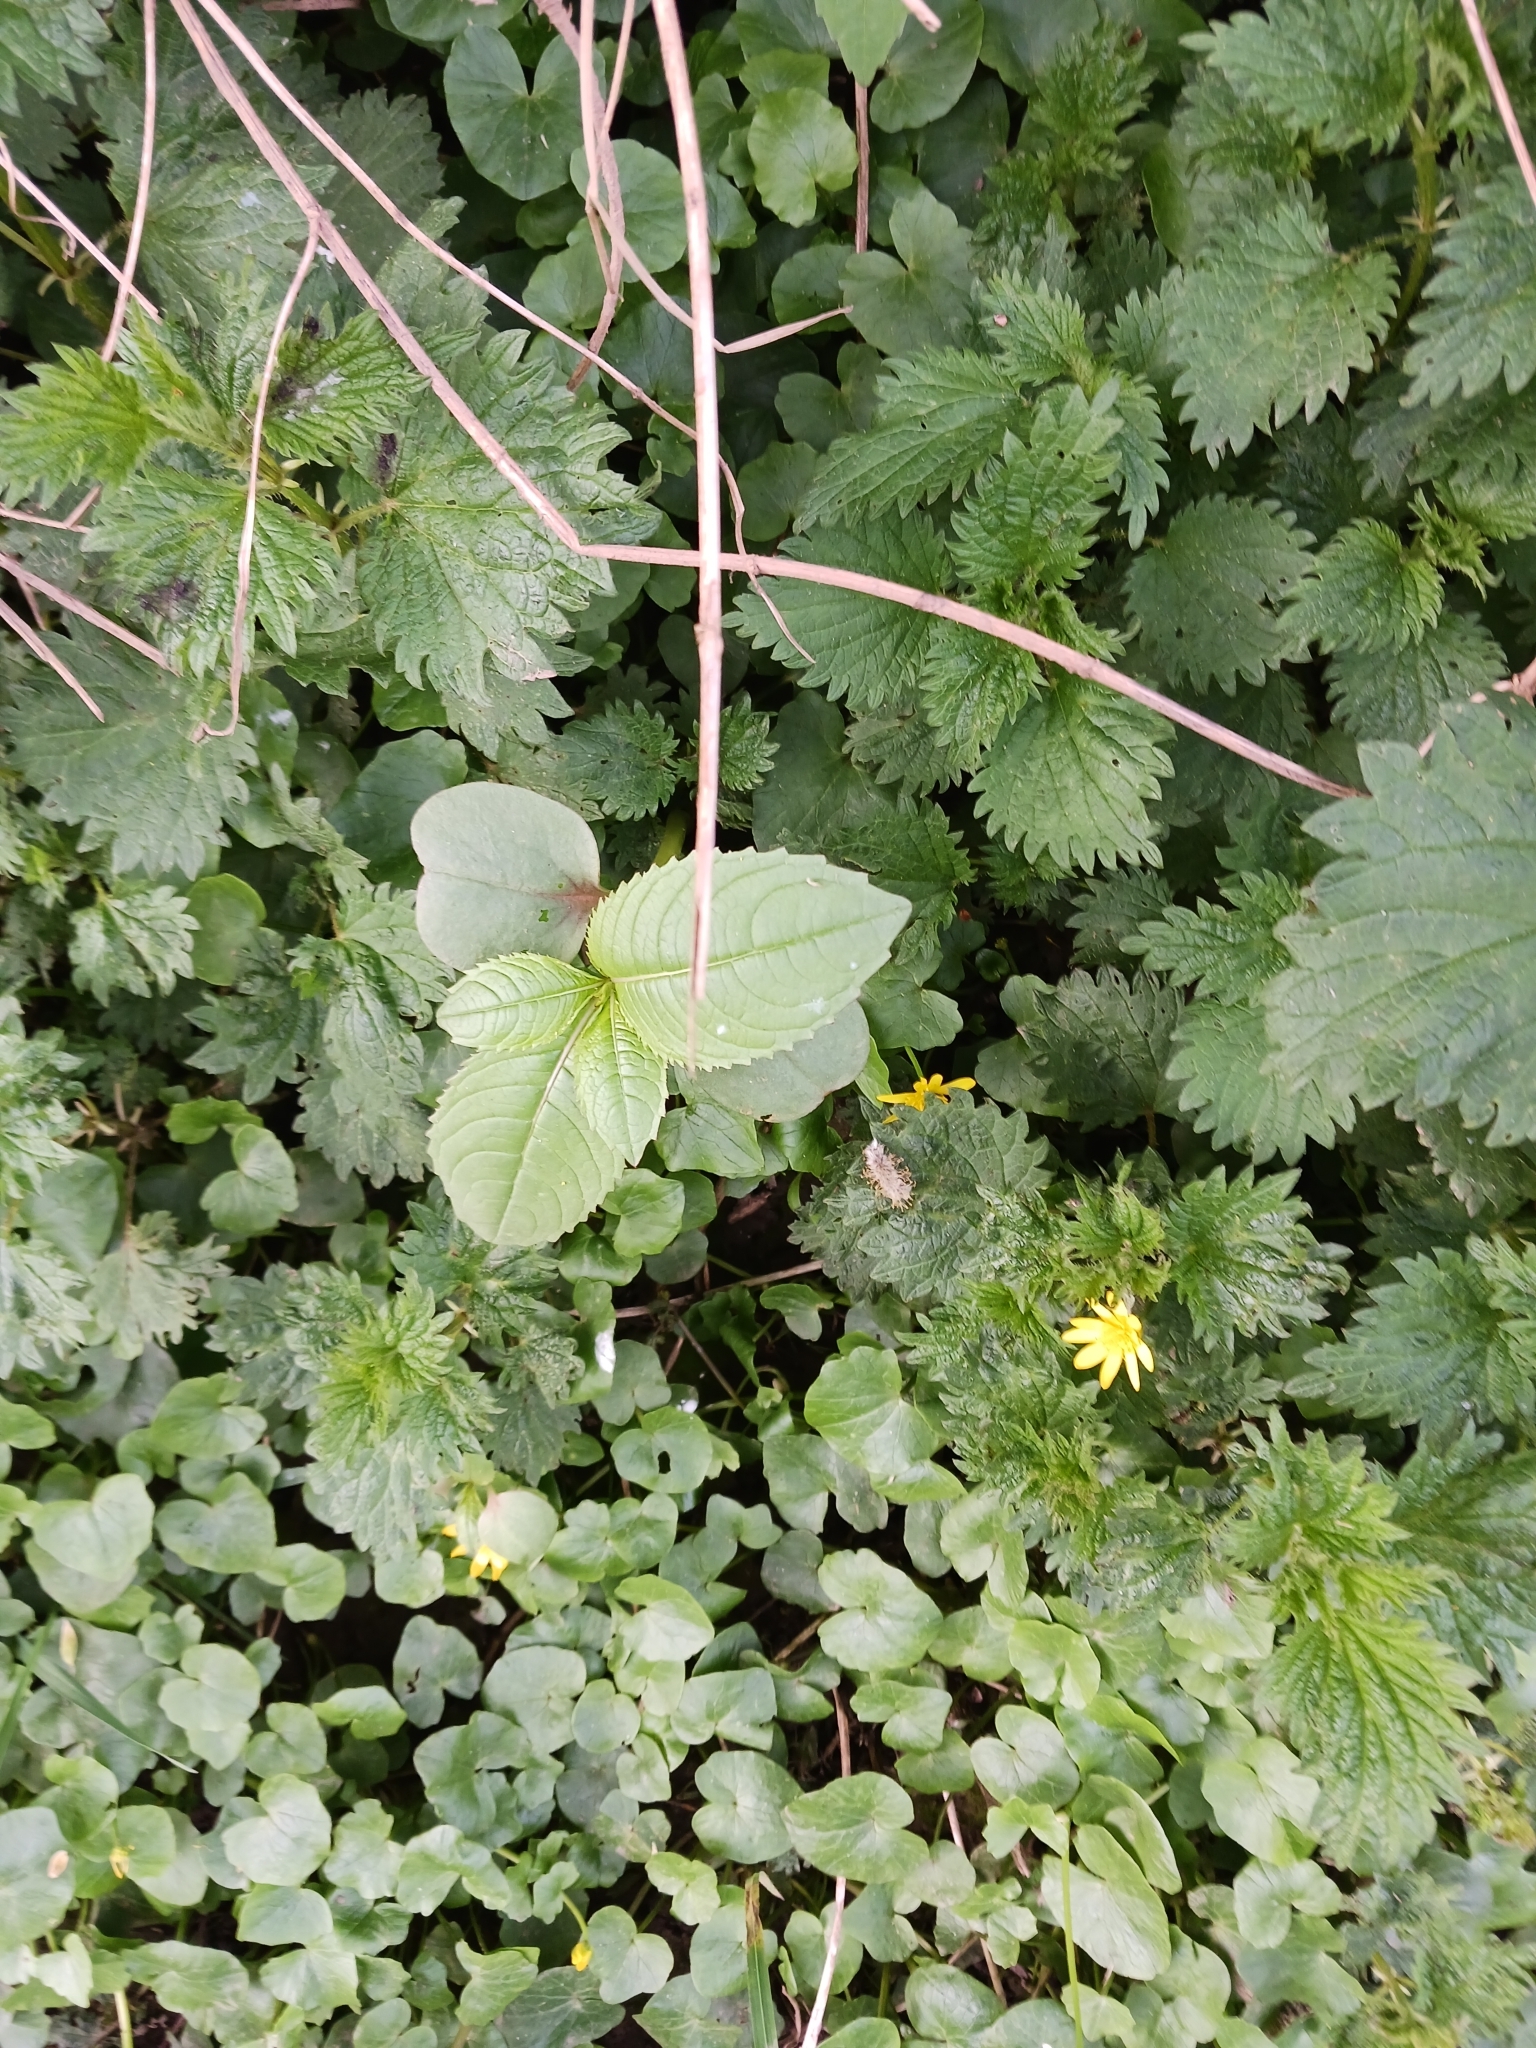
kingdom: Plantae
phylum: Tracheophyta
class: Magnoliopsida
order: Ericales
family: Balsaminaceae
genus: Impatiens
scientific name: Impatiens glandulifera
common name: Himalayan balsam
